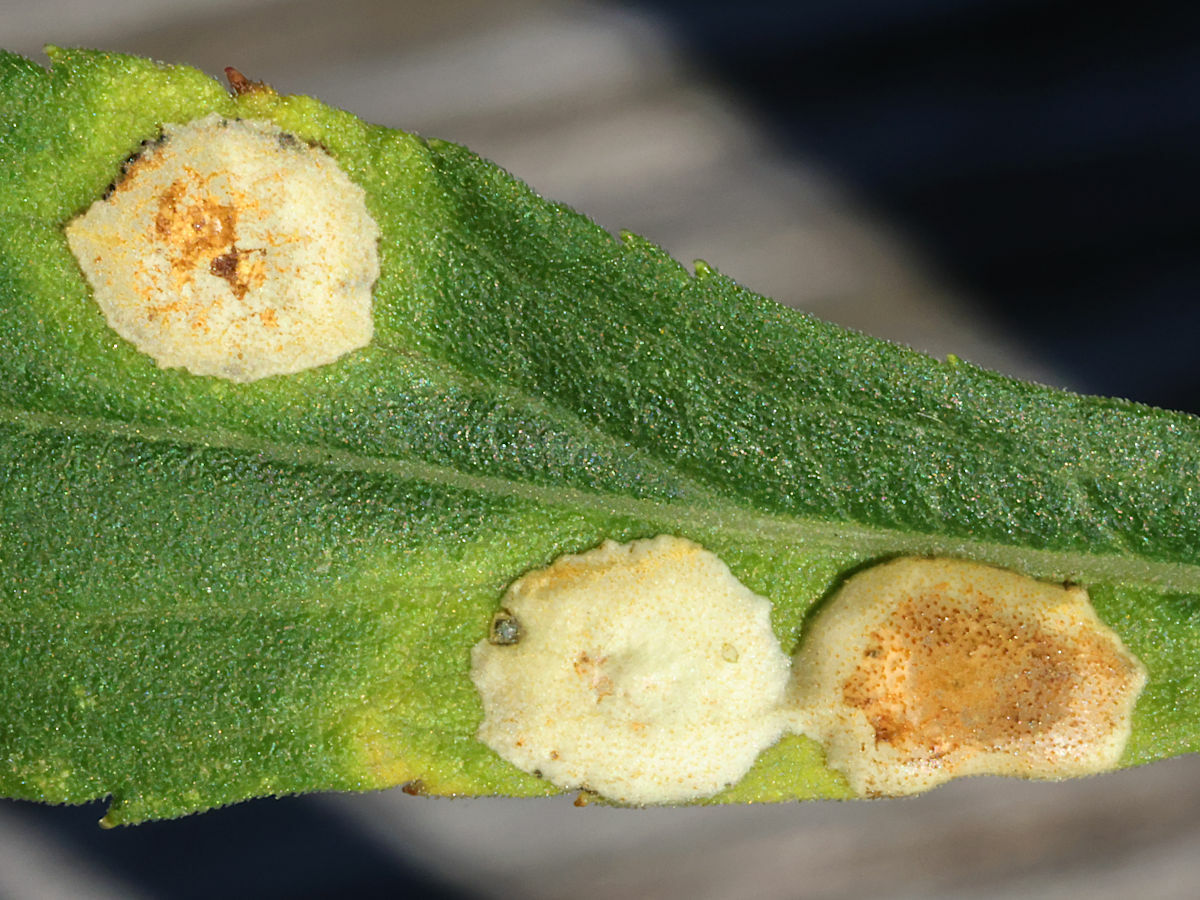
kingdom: Animalia
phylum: Arthropoda
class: Insecta
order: Diptera
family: Cecidomyiidae
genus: Asteromyia
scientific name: Asteromyia carbonifera
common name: Carbonifera goldenrod gall midge
